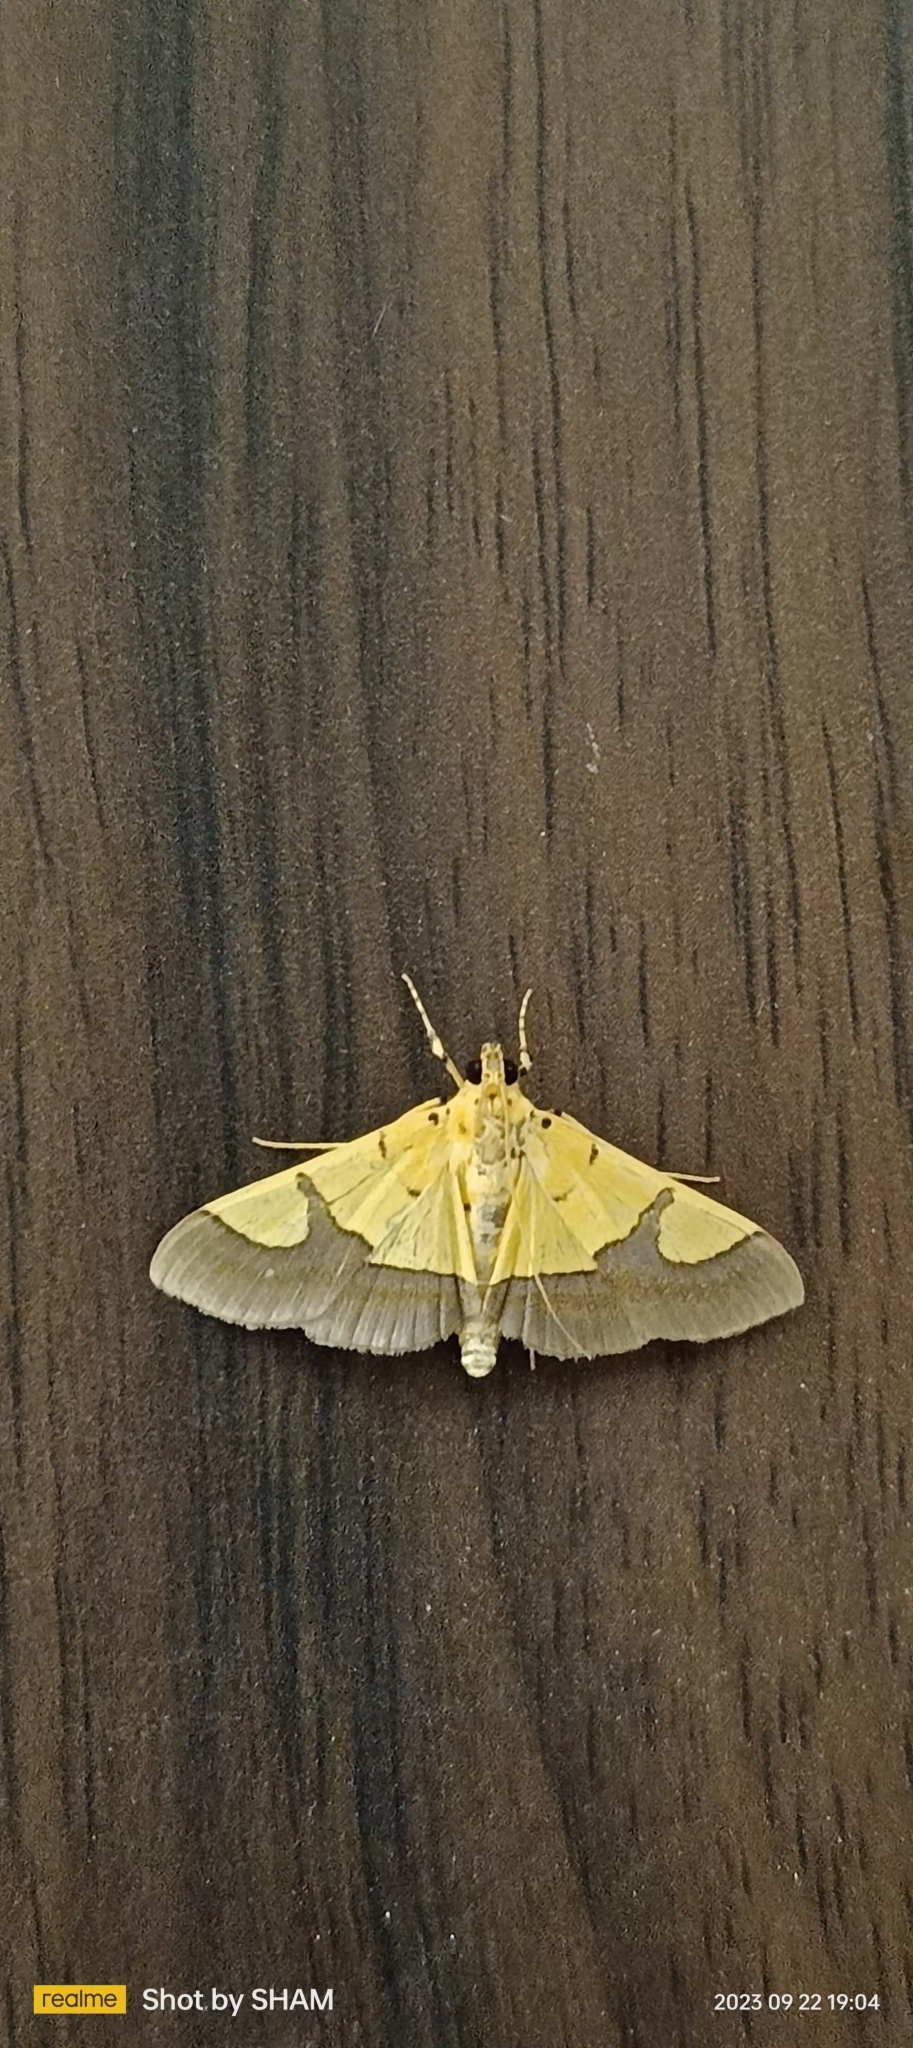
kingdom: Animalia
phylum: Arthropoda
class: Insecta
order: Lepidoptera
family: Crambidae
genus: Botyodes
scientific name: Botyodes
